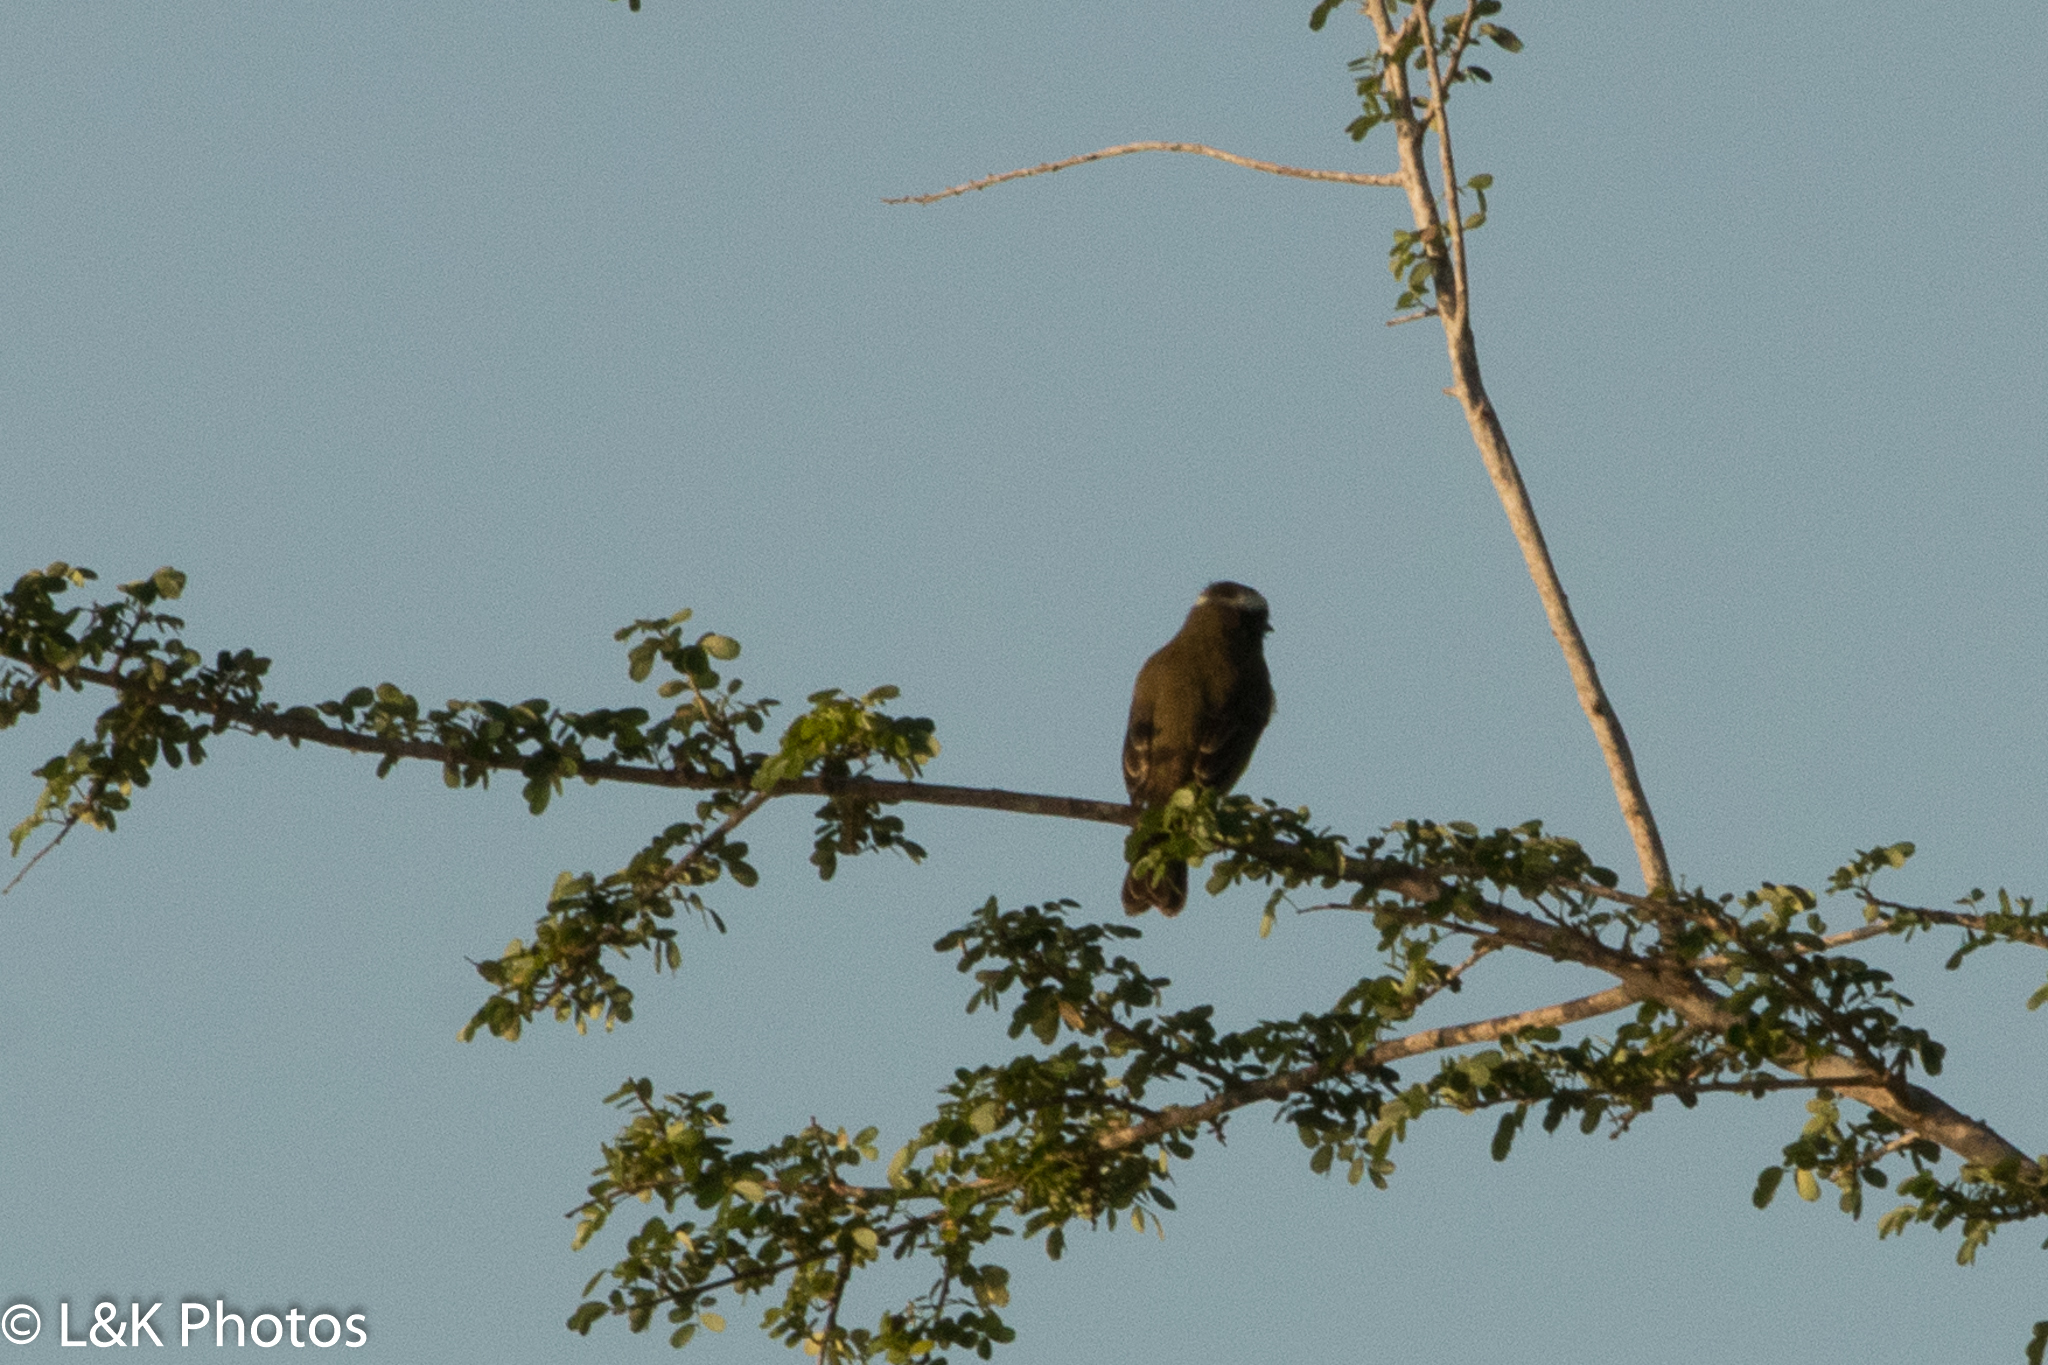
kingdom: Animalia
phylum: Chordata
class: Aves
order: Passeriformes
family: Tyrannidae
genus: Myiozetetes
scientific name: Myiozetetes similis
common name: Social flycatcher
